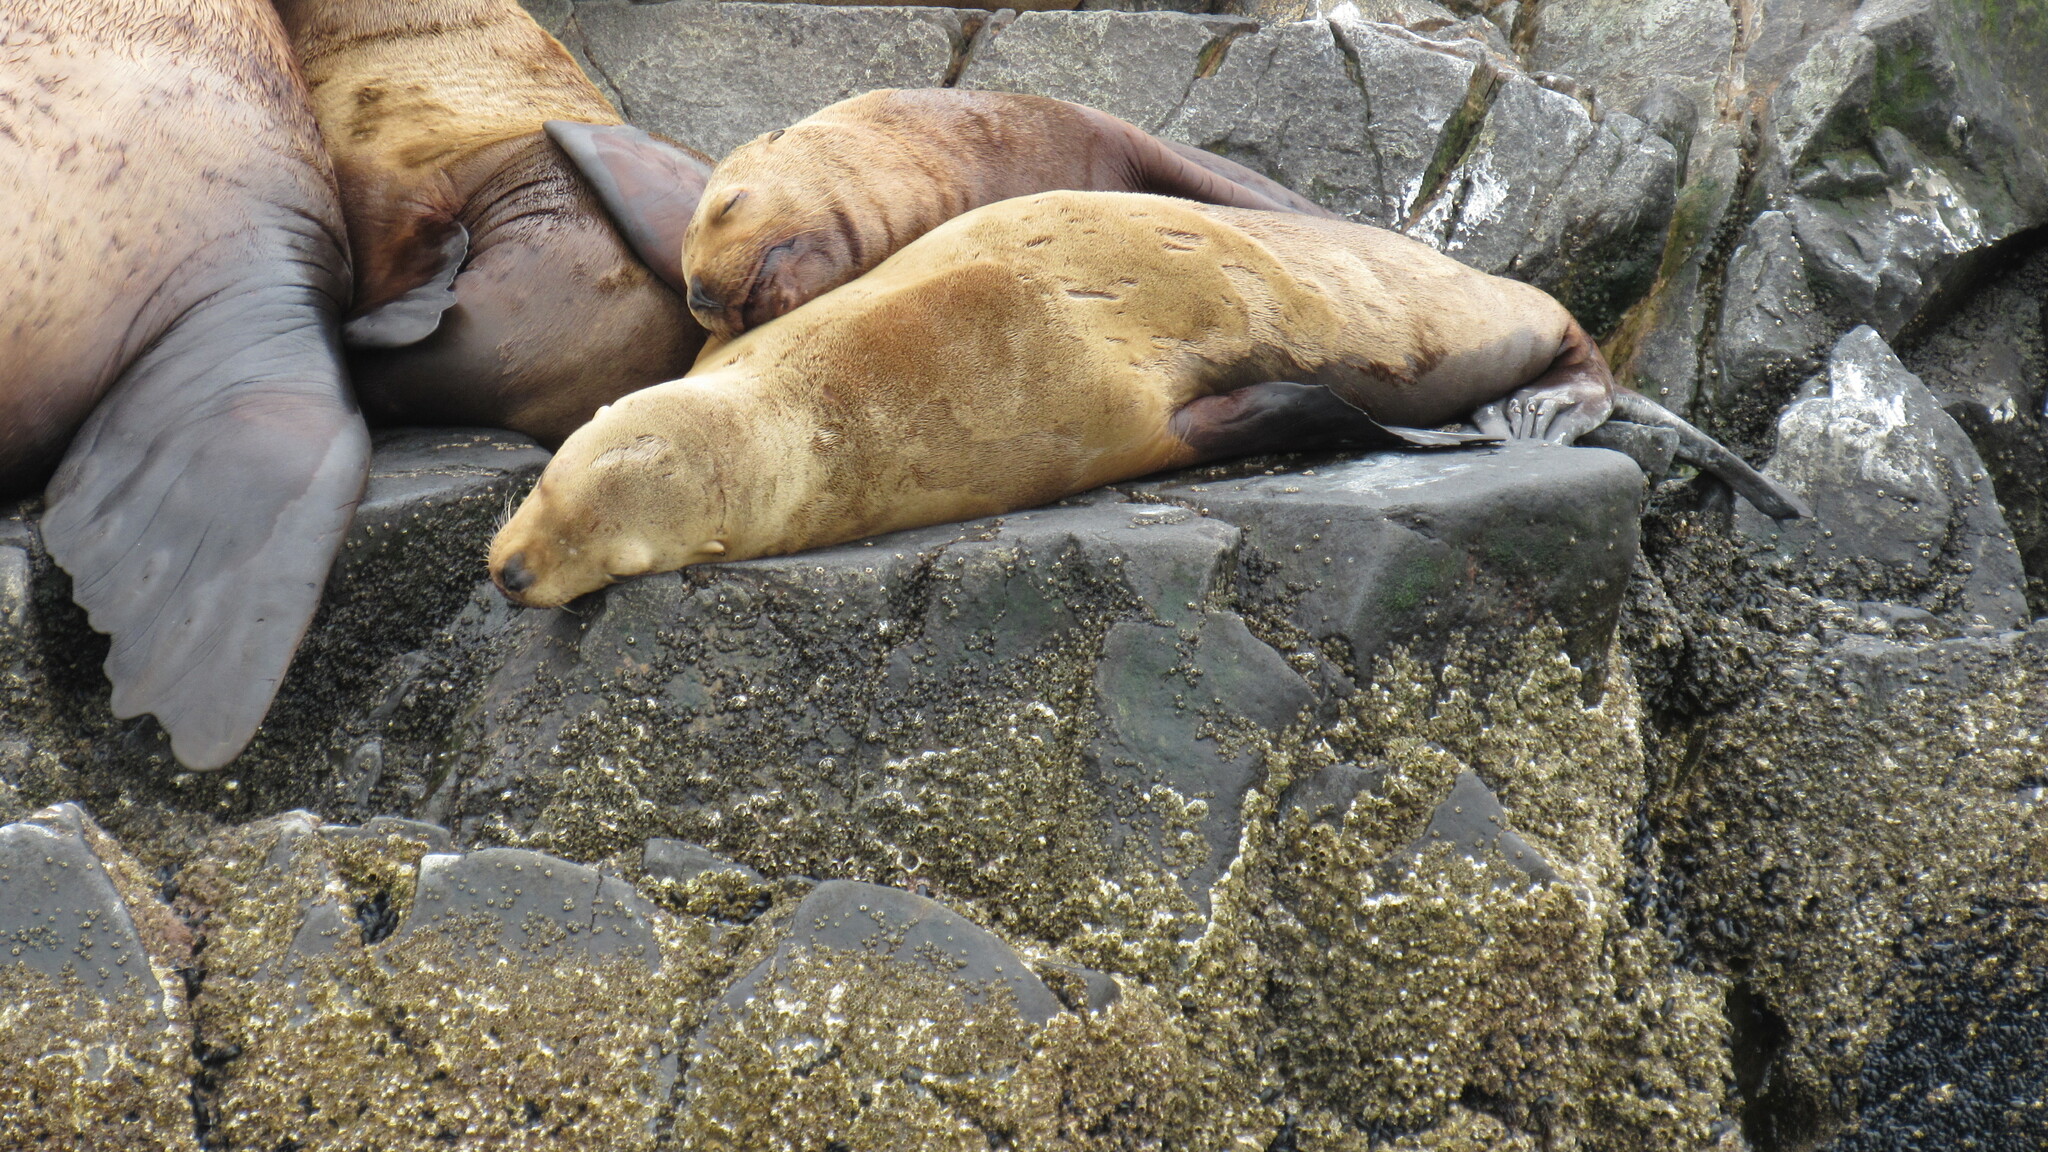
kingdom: Animalia
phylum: Chordata
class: Mammalia
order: Carnivora
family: Otariidae
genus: Eumetopias
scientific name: Eumetopias jubatus
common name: Steller sea lion
